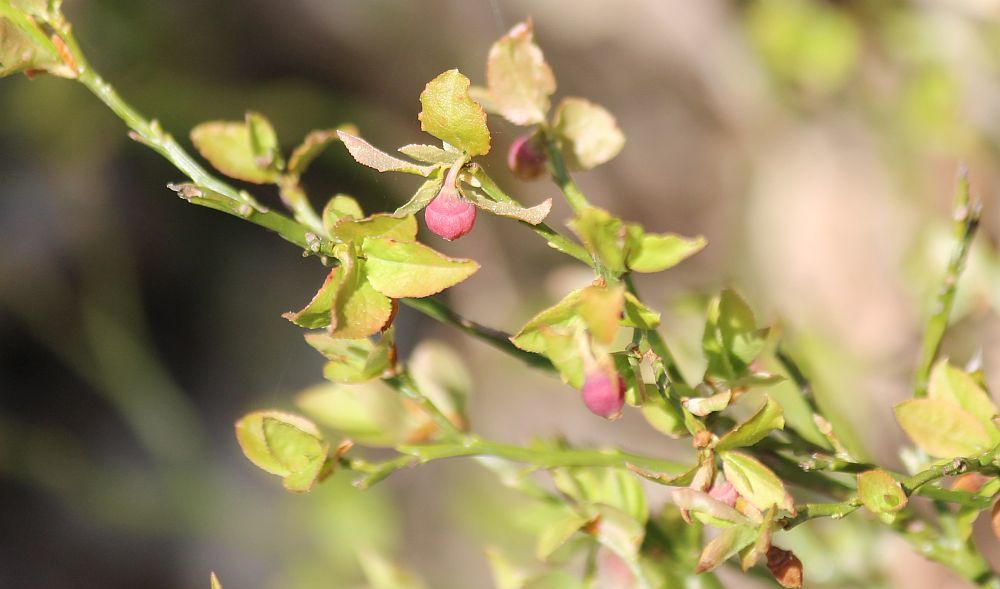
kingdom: Plantae
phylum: Tracheophyta
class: Magnoliopsida
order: Ericales
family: Ericaceae
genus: Vaccinium
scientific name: Vaccinium myrtillus
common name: Bilberry
